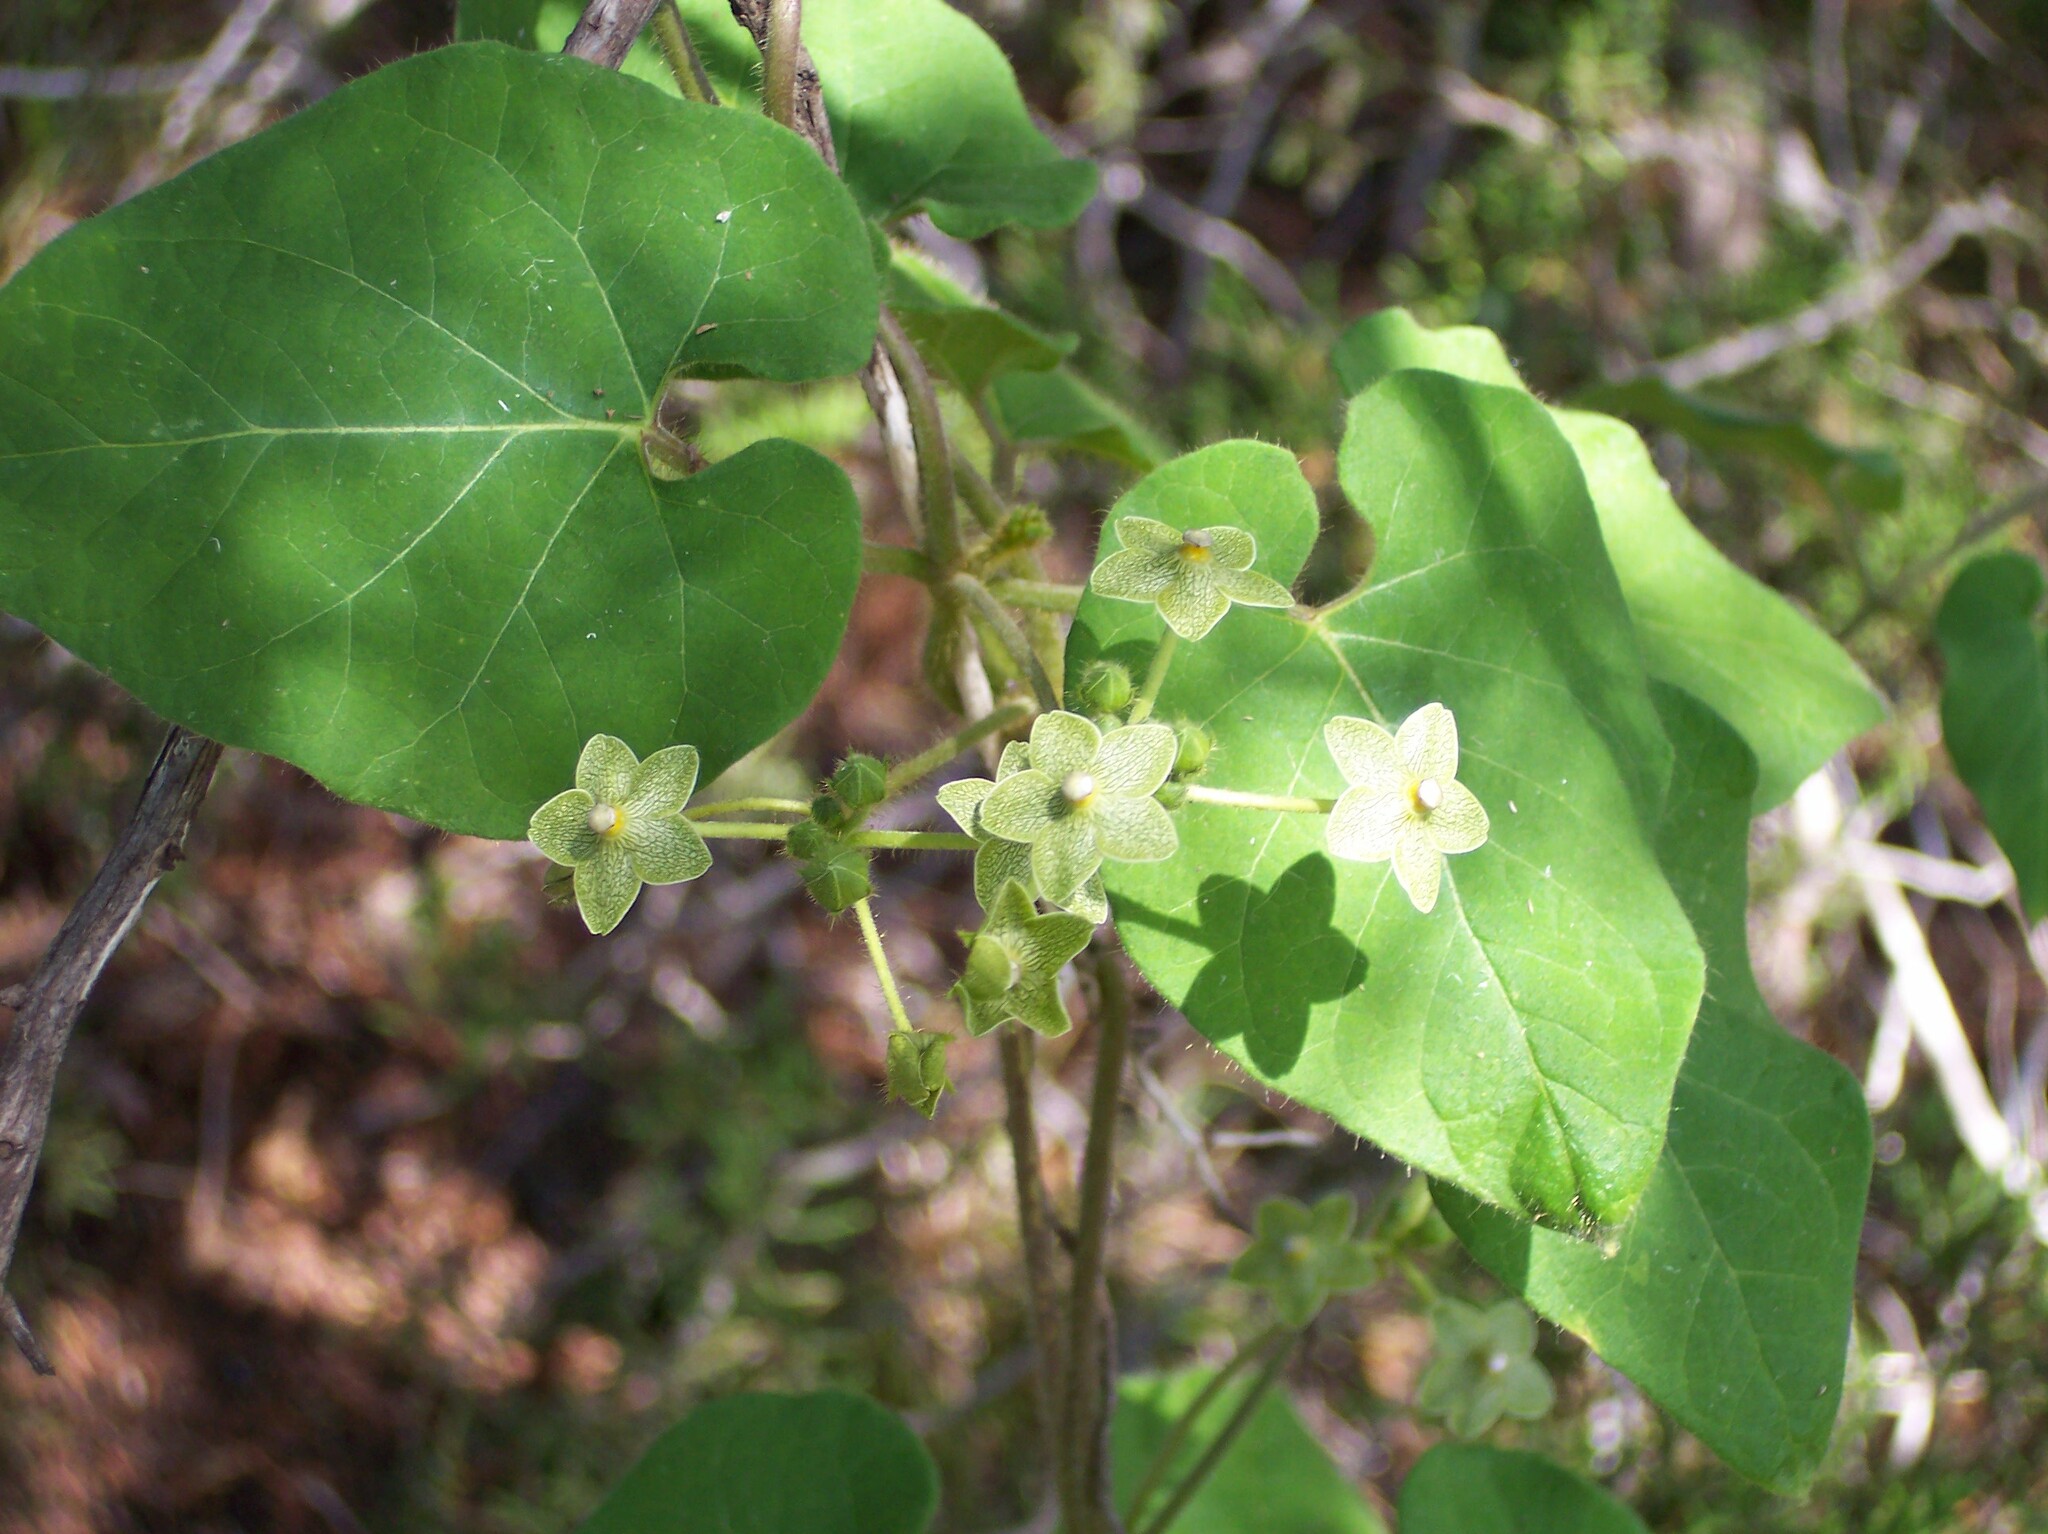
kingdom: Plantae
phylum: Tracheophyta
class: Magnoliopsida
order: Gentianales
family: Apocynaceae
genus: Dictyanthus
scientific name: Dictyanthus reticulatus
